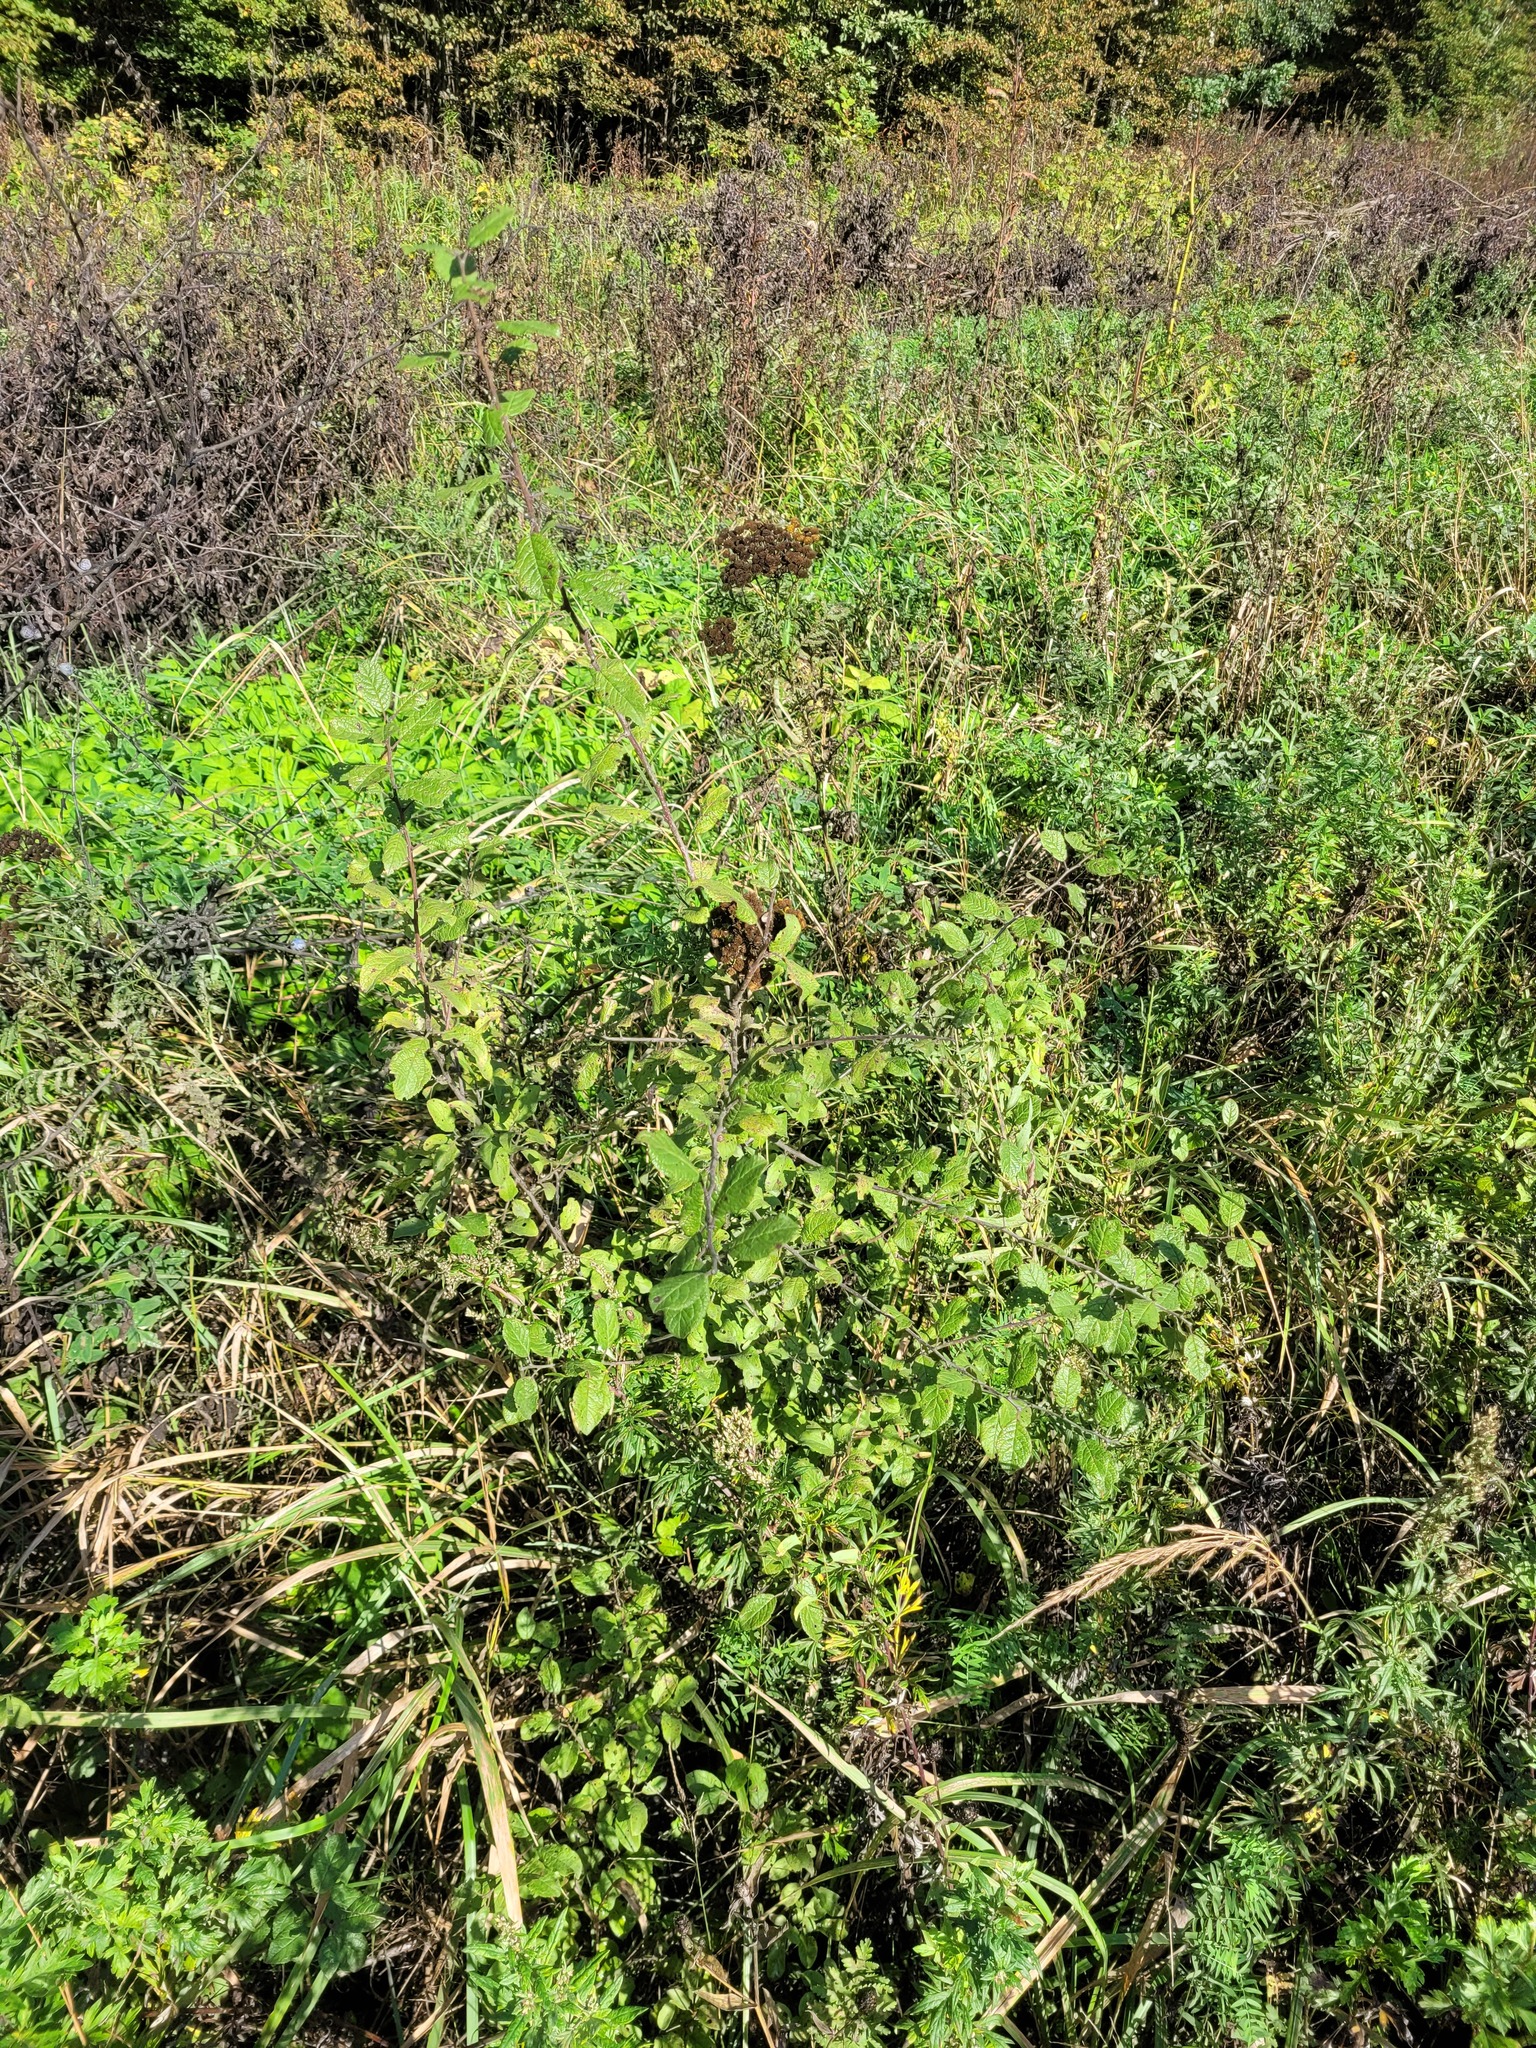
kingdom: Plantae
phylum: Tracheophyta
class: Magnoliopsida
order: Rosales
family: Rosaceae
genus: Prunus
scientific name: Prunus domestica
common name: Wild plum
